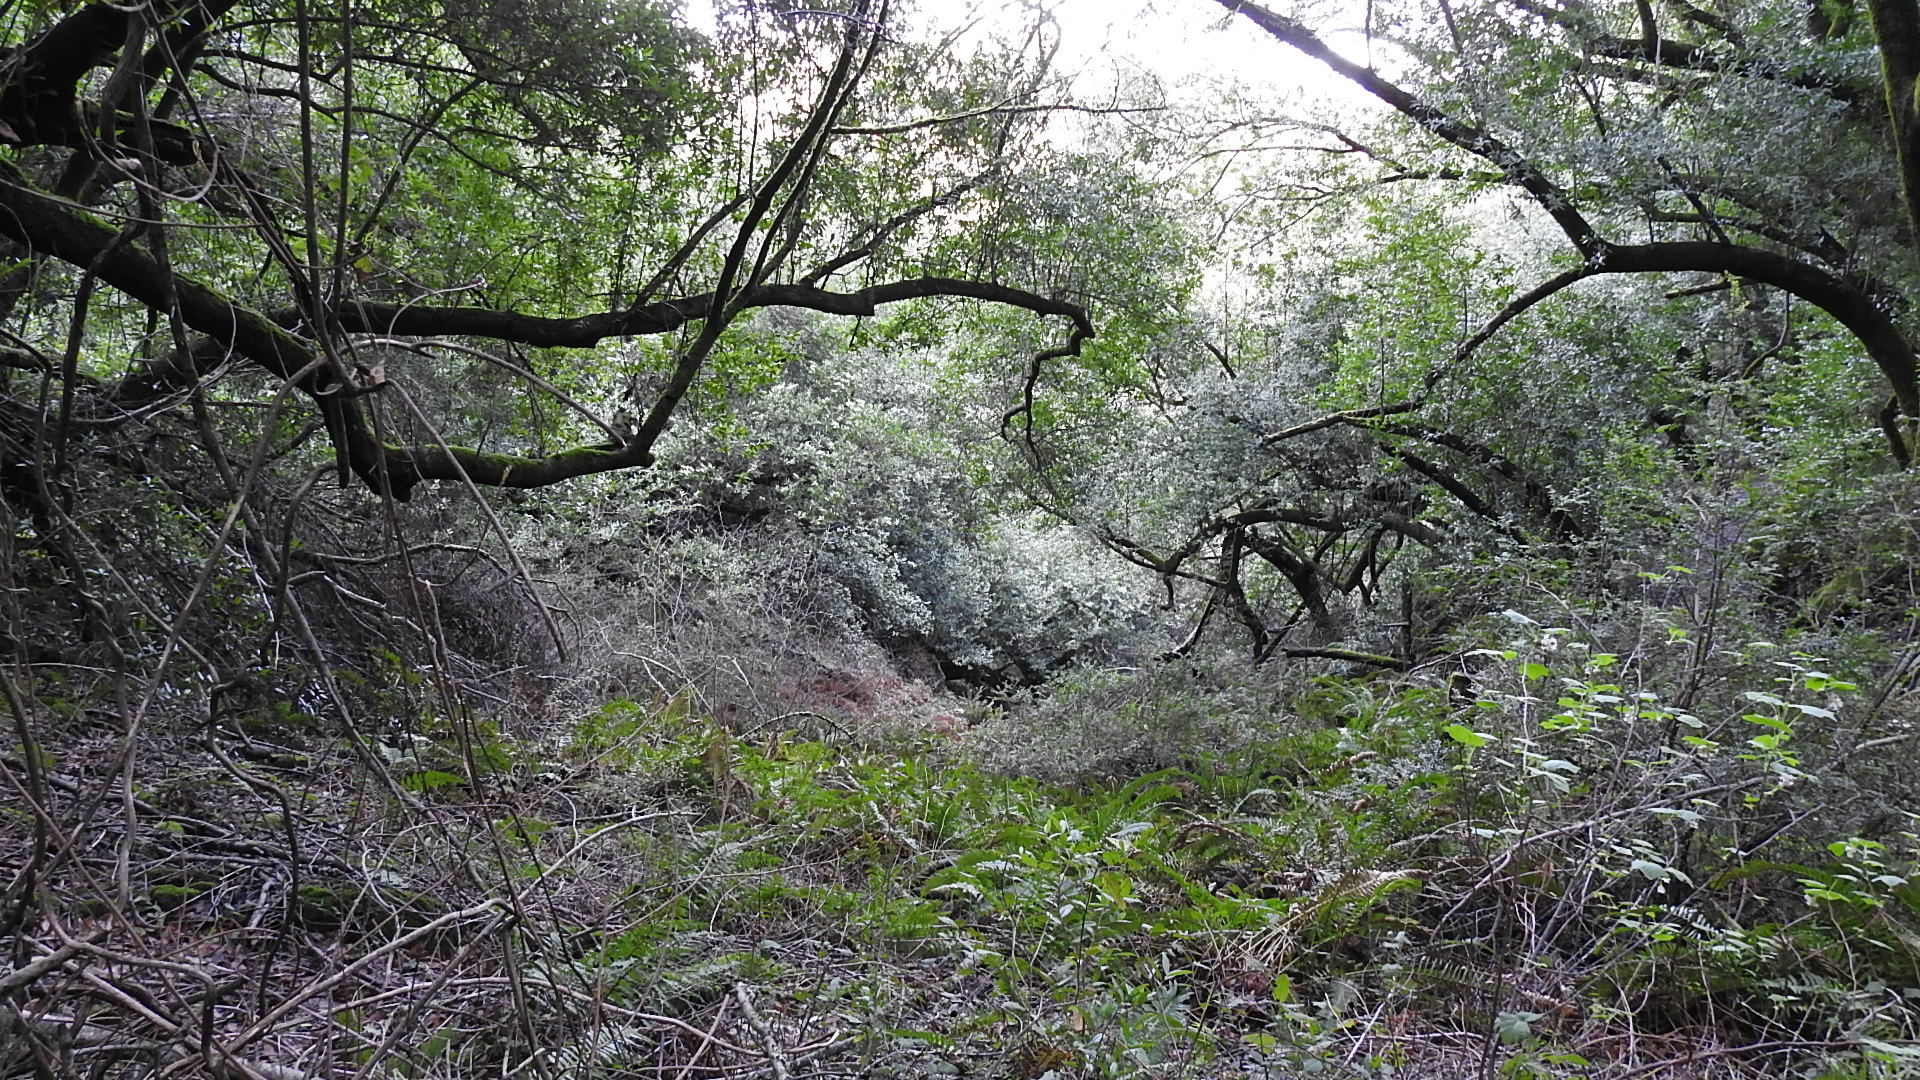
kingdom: Plantae
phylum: Tracheophyta
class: Polypodiopsida
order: Polypodiales
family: Dryopteridaceae
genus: Polystichum
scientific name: Polystichum munitum
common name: Western sword-fern
